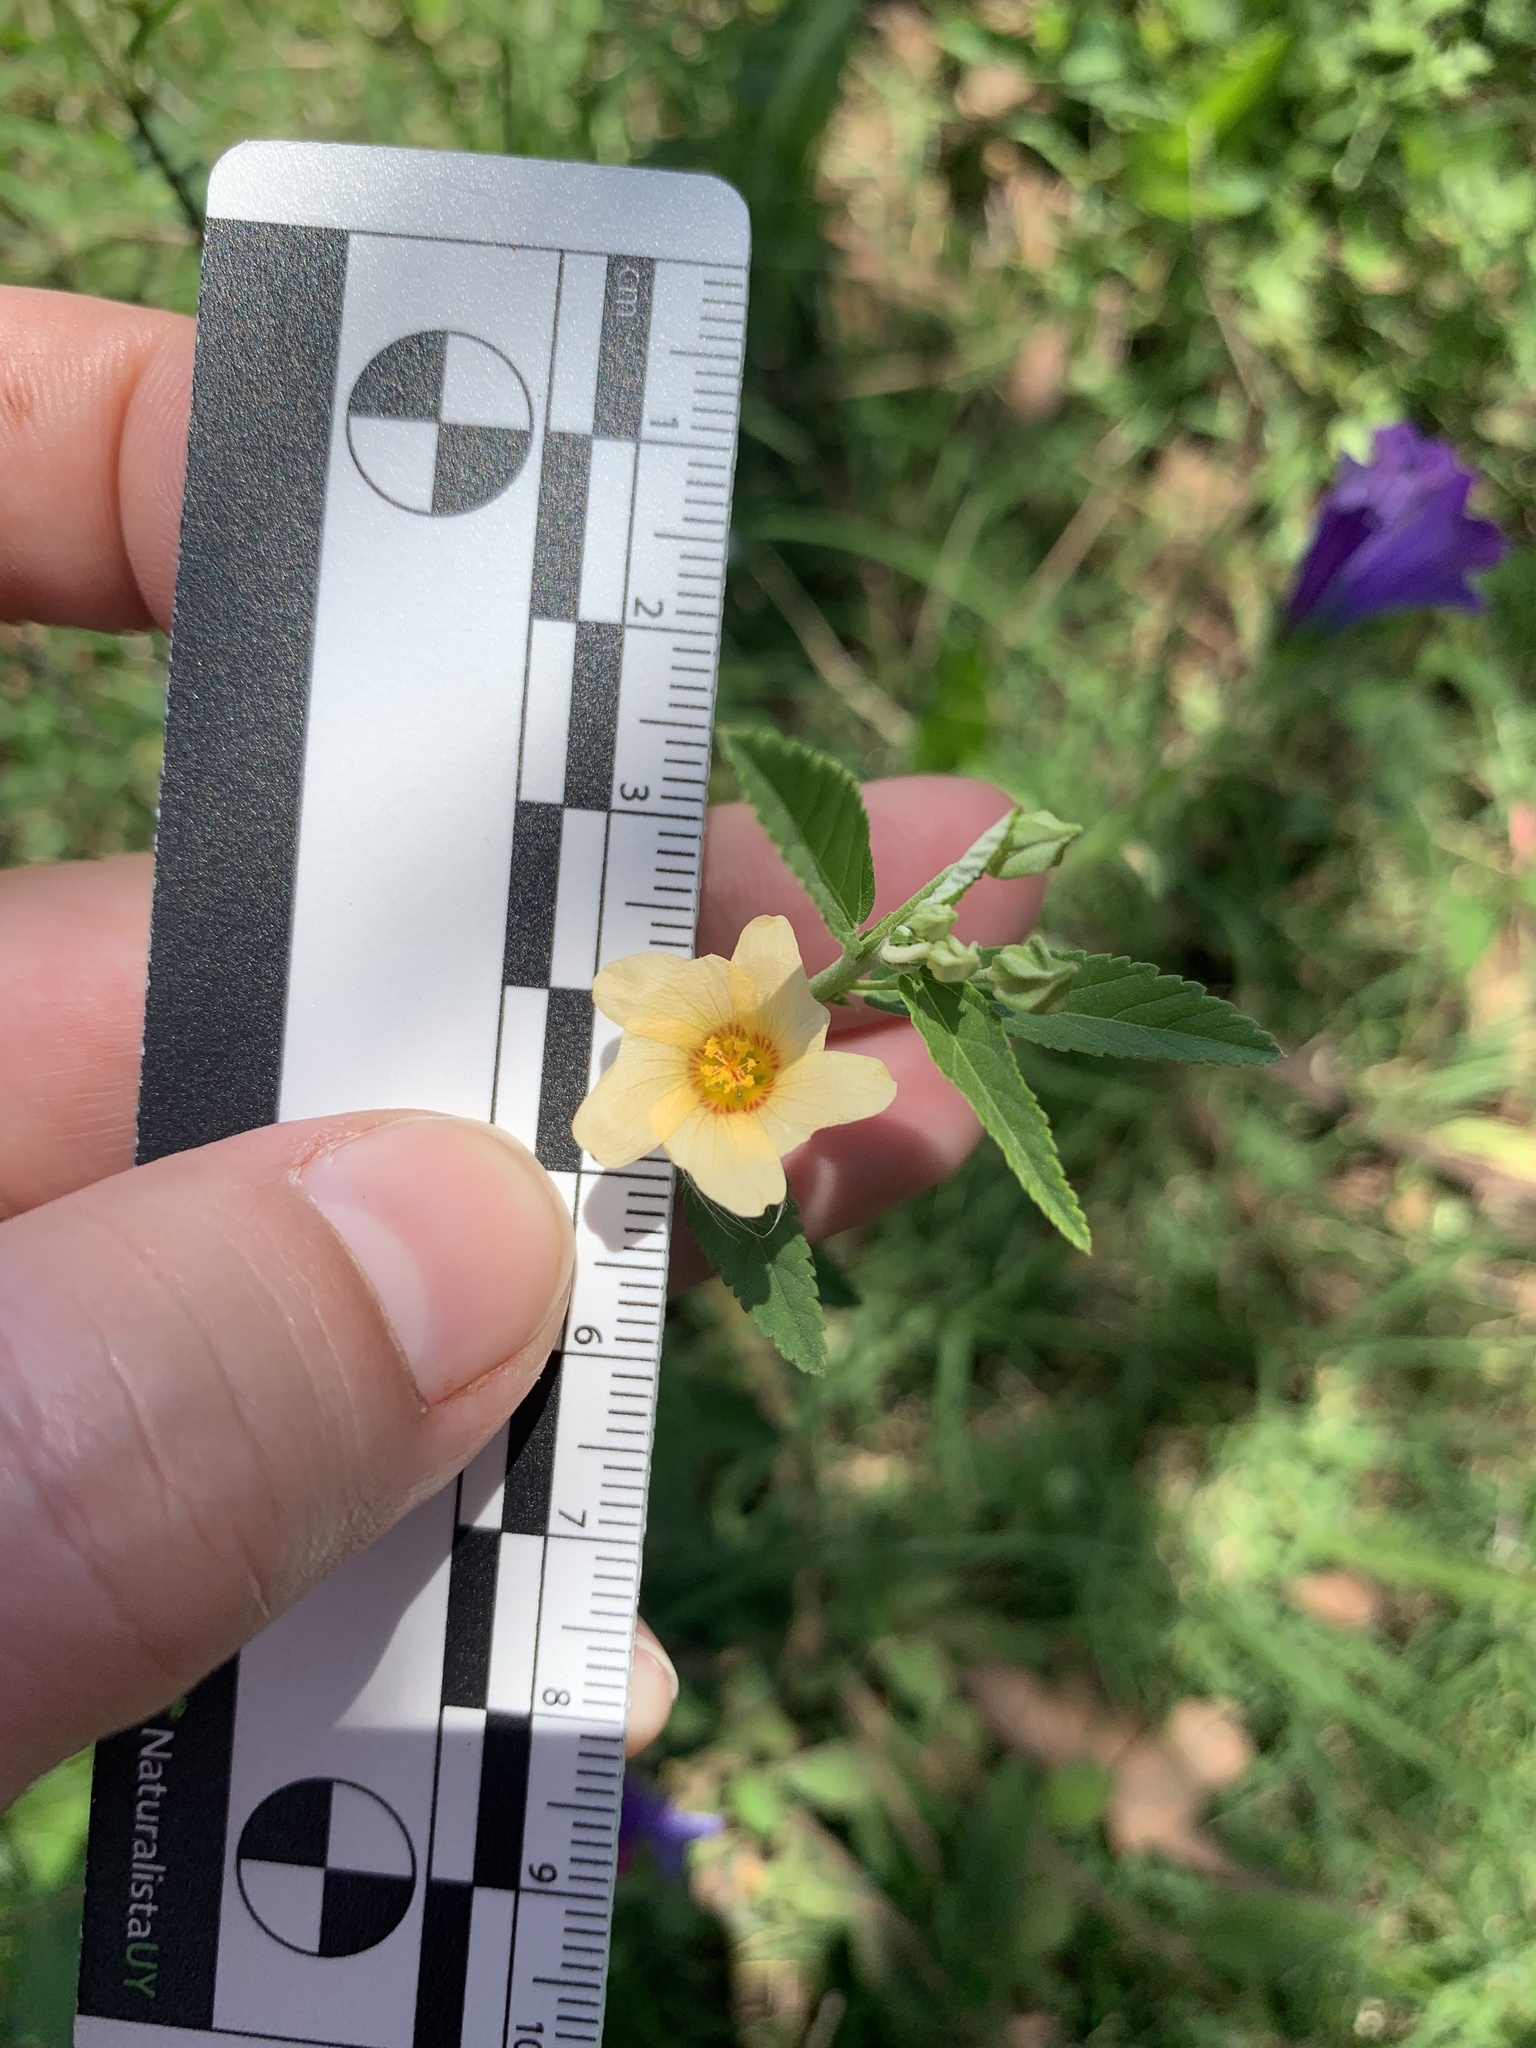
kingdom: Plantae
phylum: Tracheophyta
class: Magnoliopsida
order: Malvales
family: Malvaceae
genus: Sida
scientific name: Sida rhombifolia
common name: Queensland-hemp
